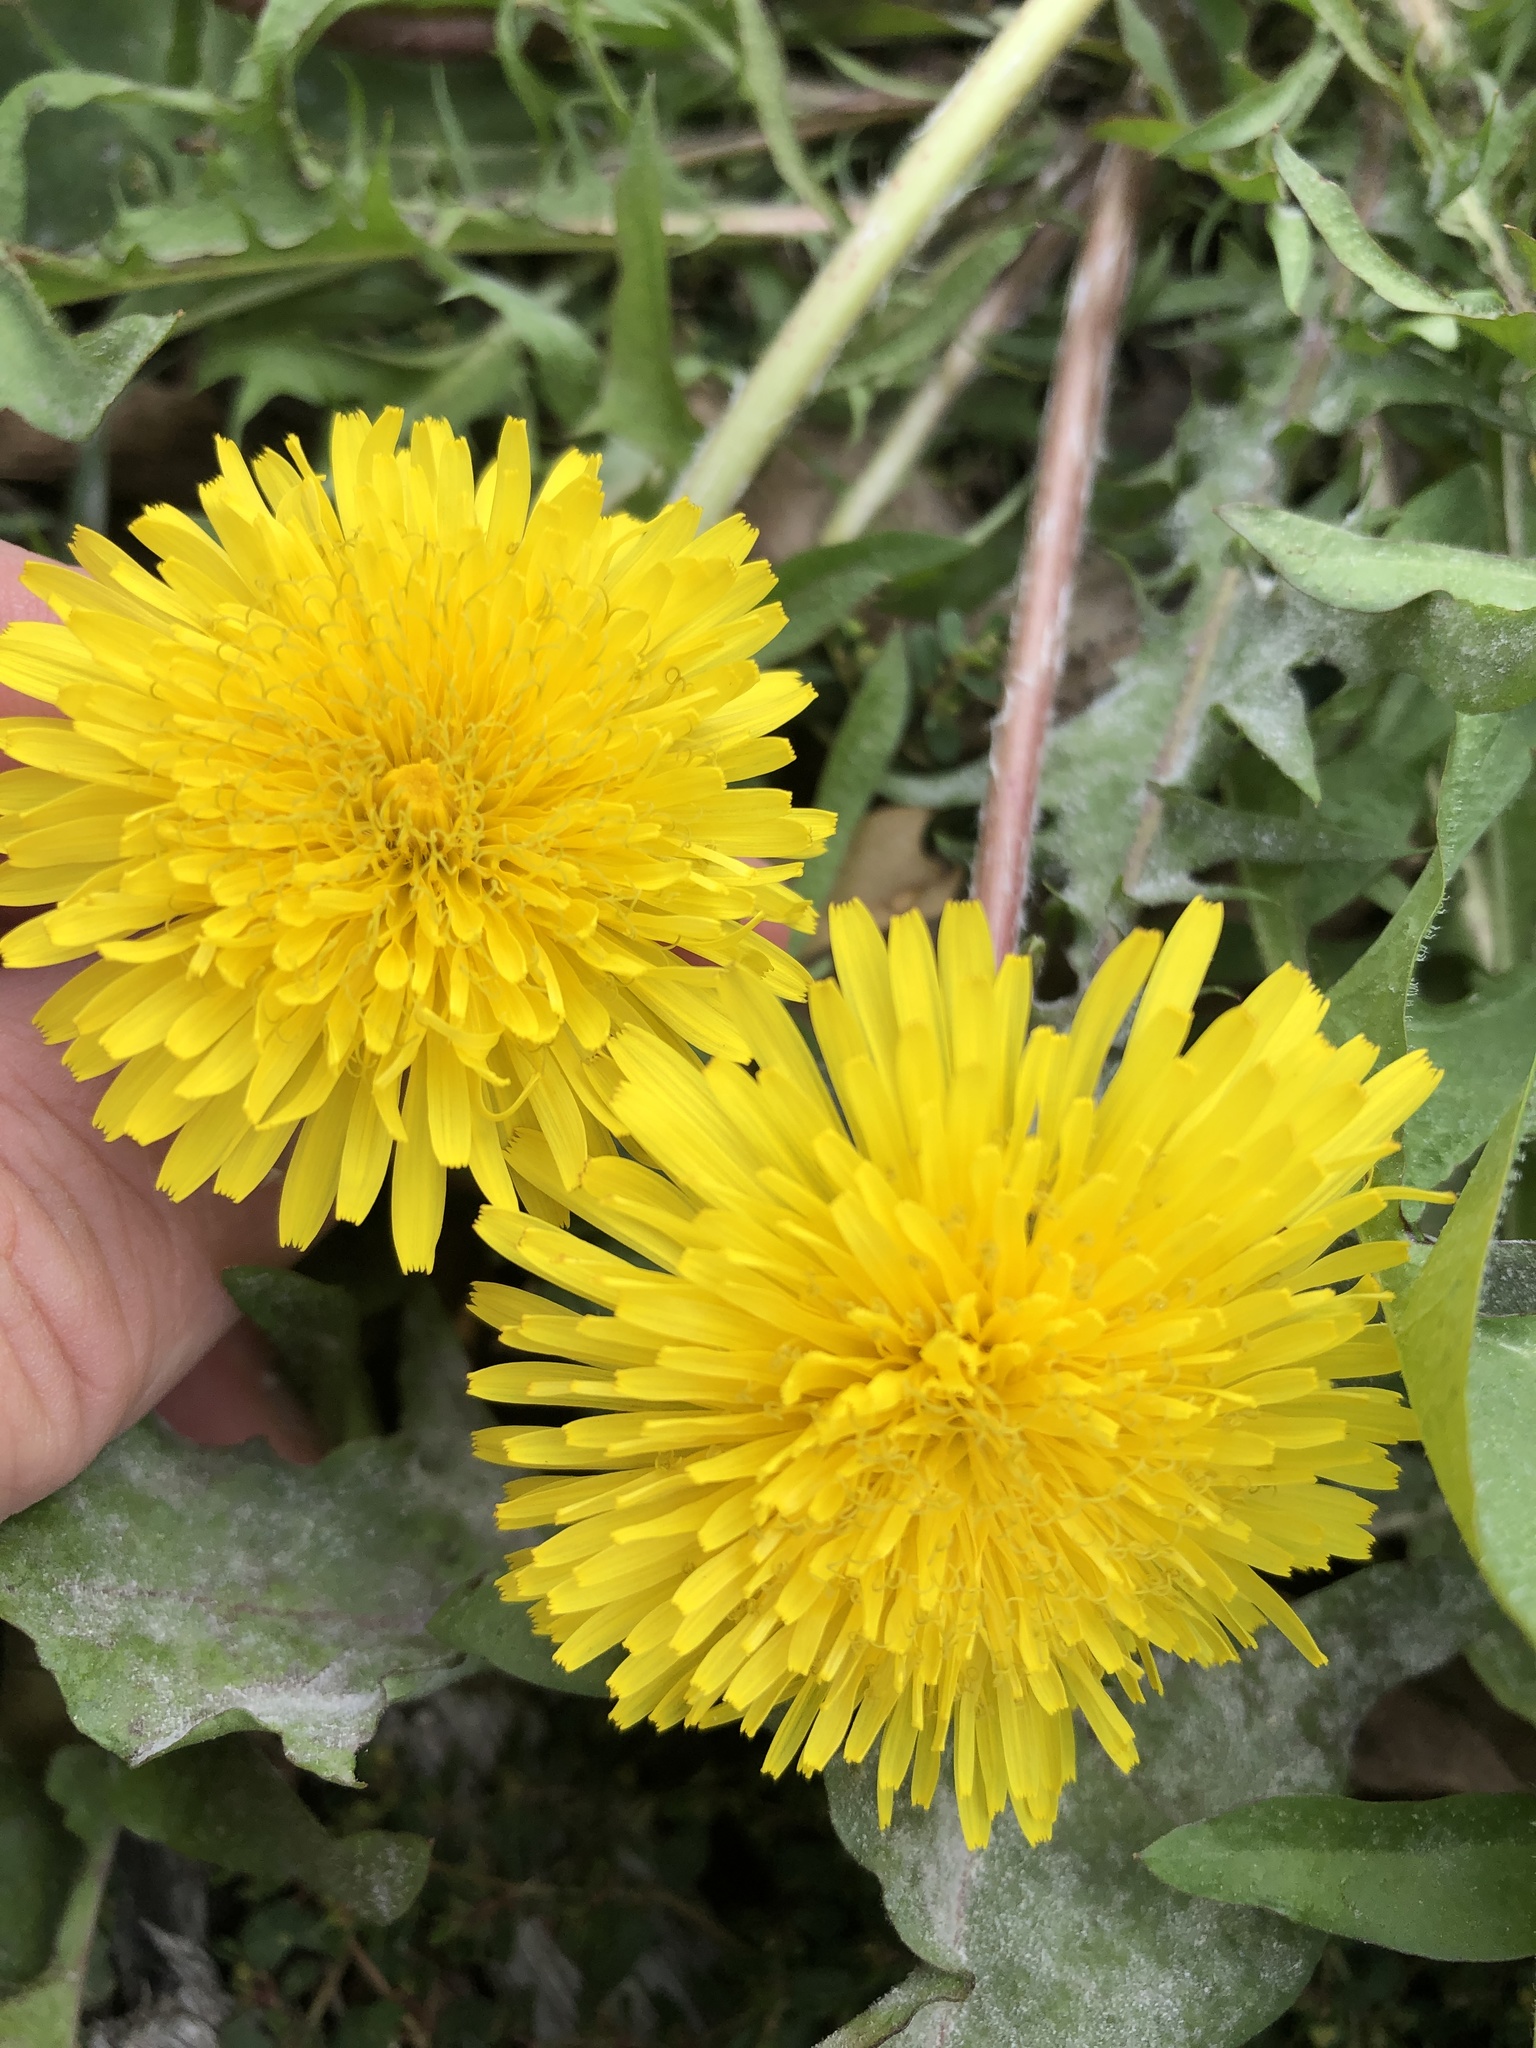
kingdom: Plantae
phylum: Tracheophyta
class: Magnoliopsida
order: Asterales
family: Asteraceae
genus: Taraxacum
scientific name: Taraxacum officinale
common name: Common dandelion
